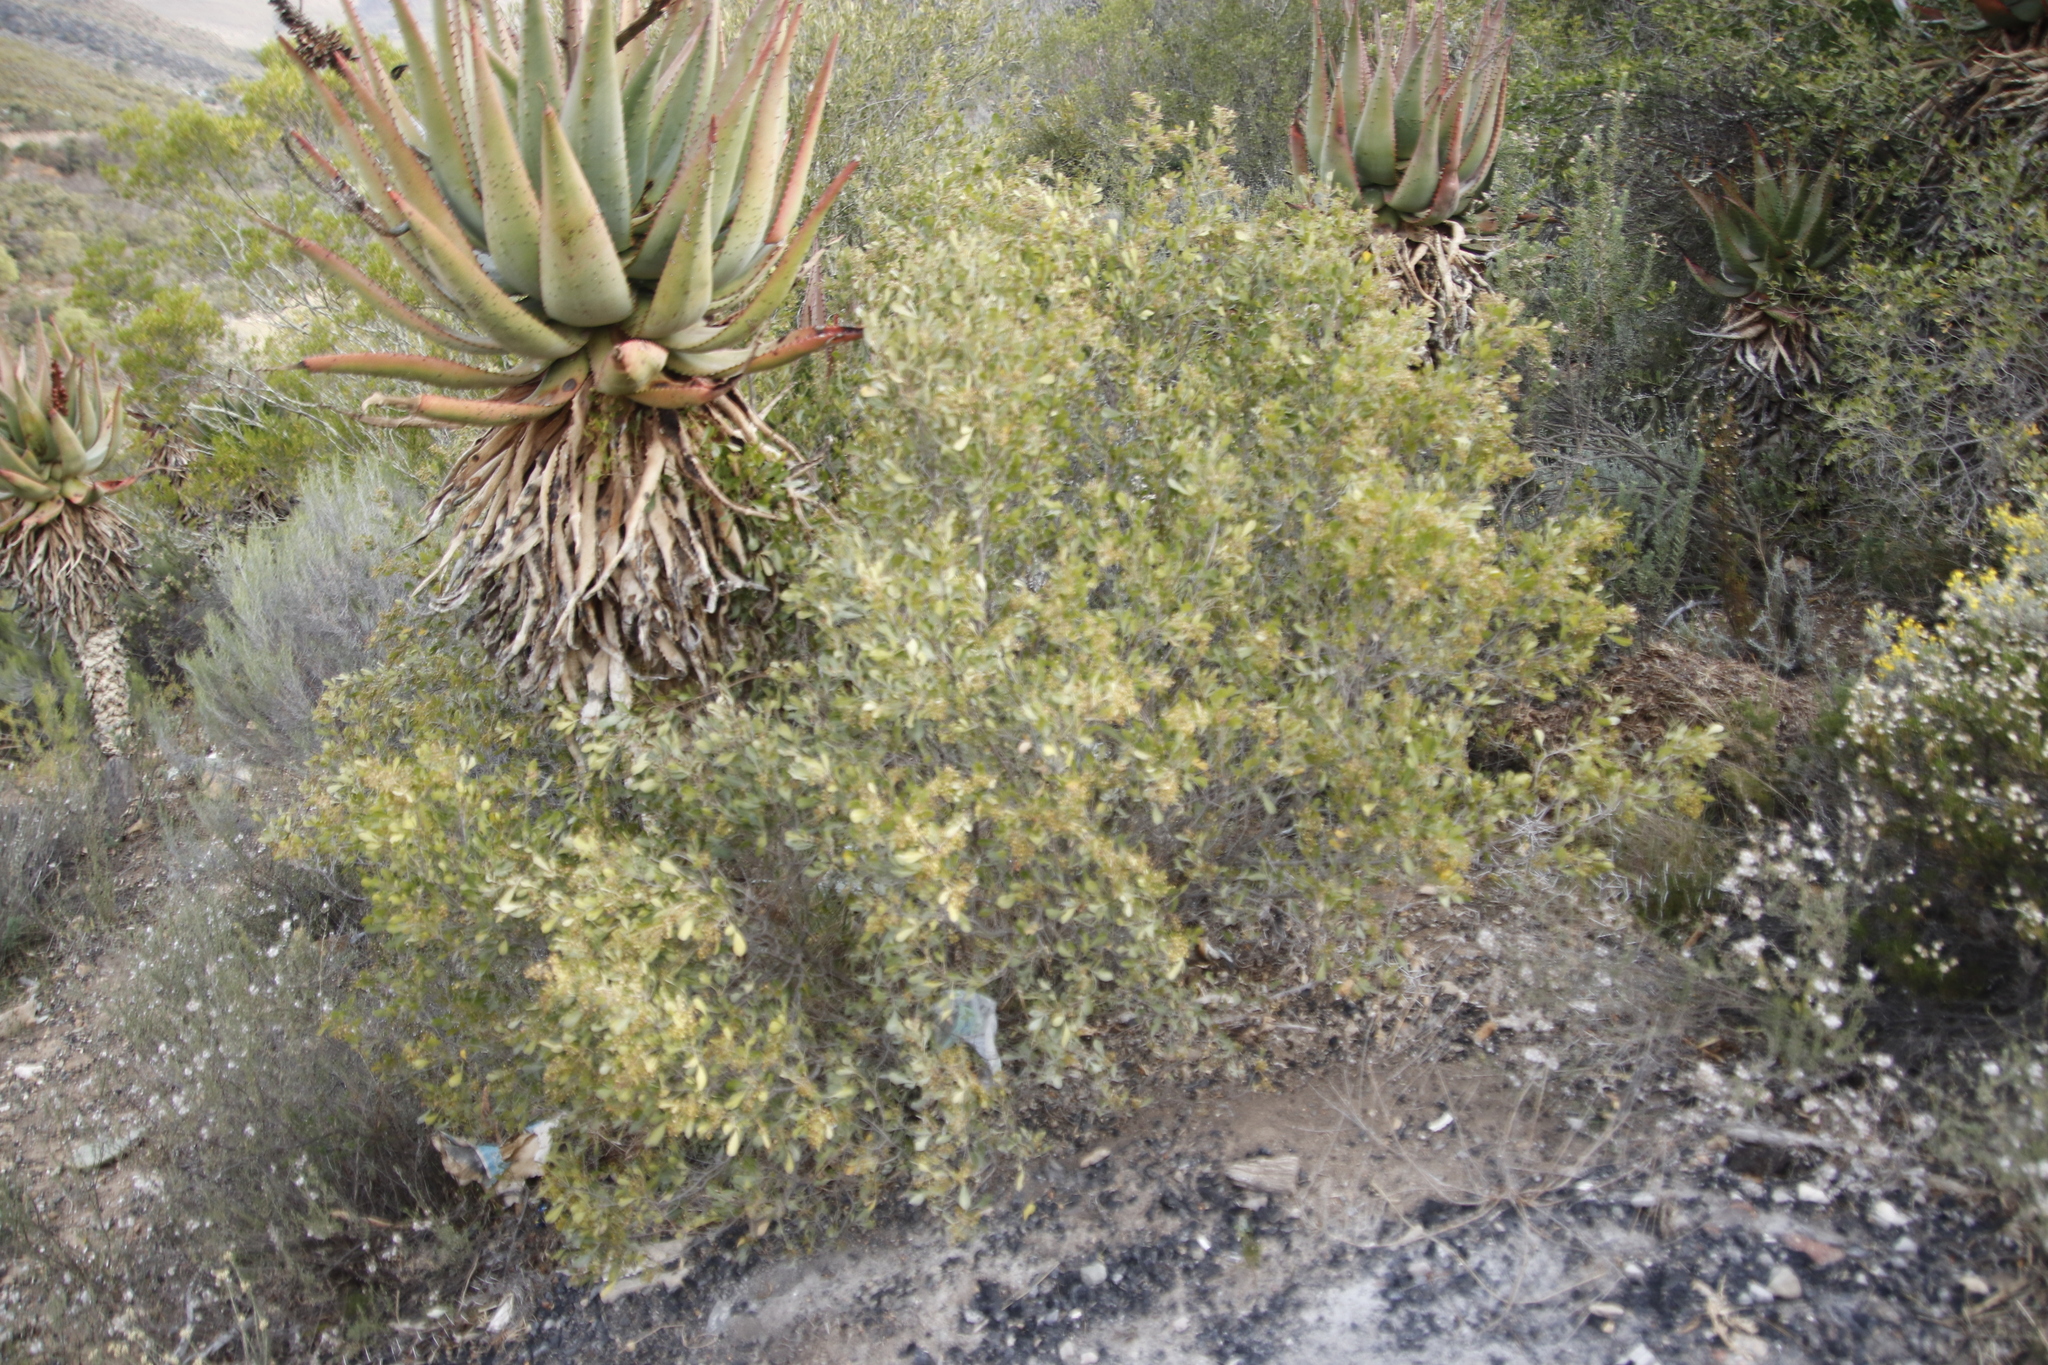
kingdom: Plantae
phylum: Tracheophyta
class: Magnoliopsida
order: Sapindales
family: Anacardiaceae
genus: Searsia
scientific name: Searsia pallens
